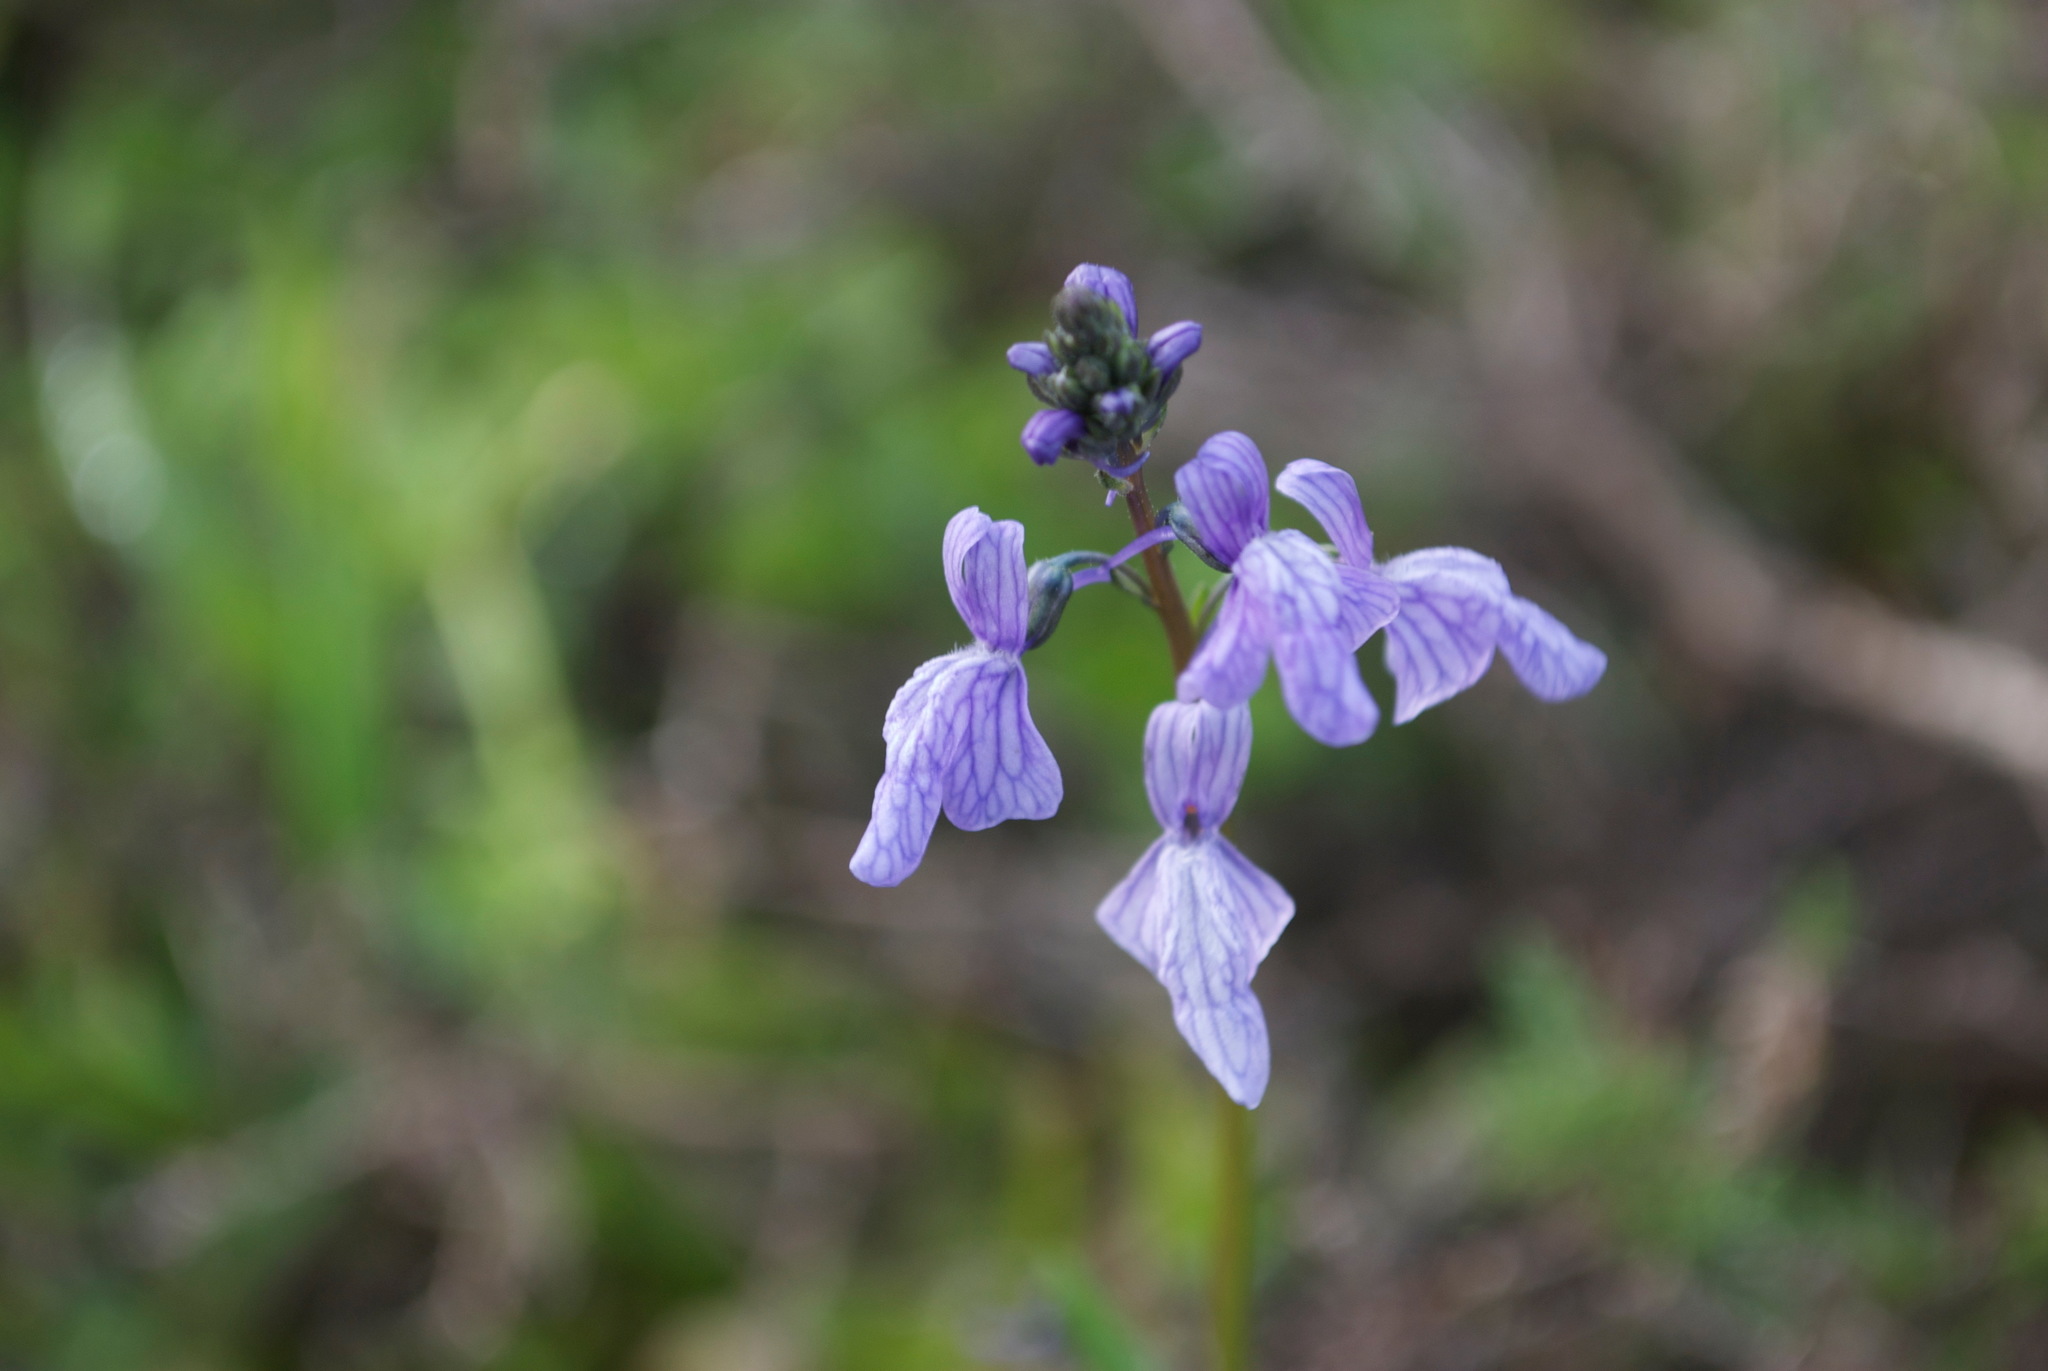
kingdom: Plantae
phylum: Tracheophyta
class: Magnoliopsida
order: Lamiales
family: Plantaginaceae
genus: Nuttallanthus
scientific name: Nuttallanthus texanus
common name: Texas toadflax
